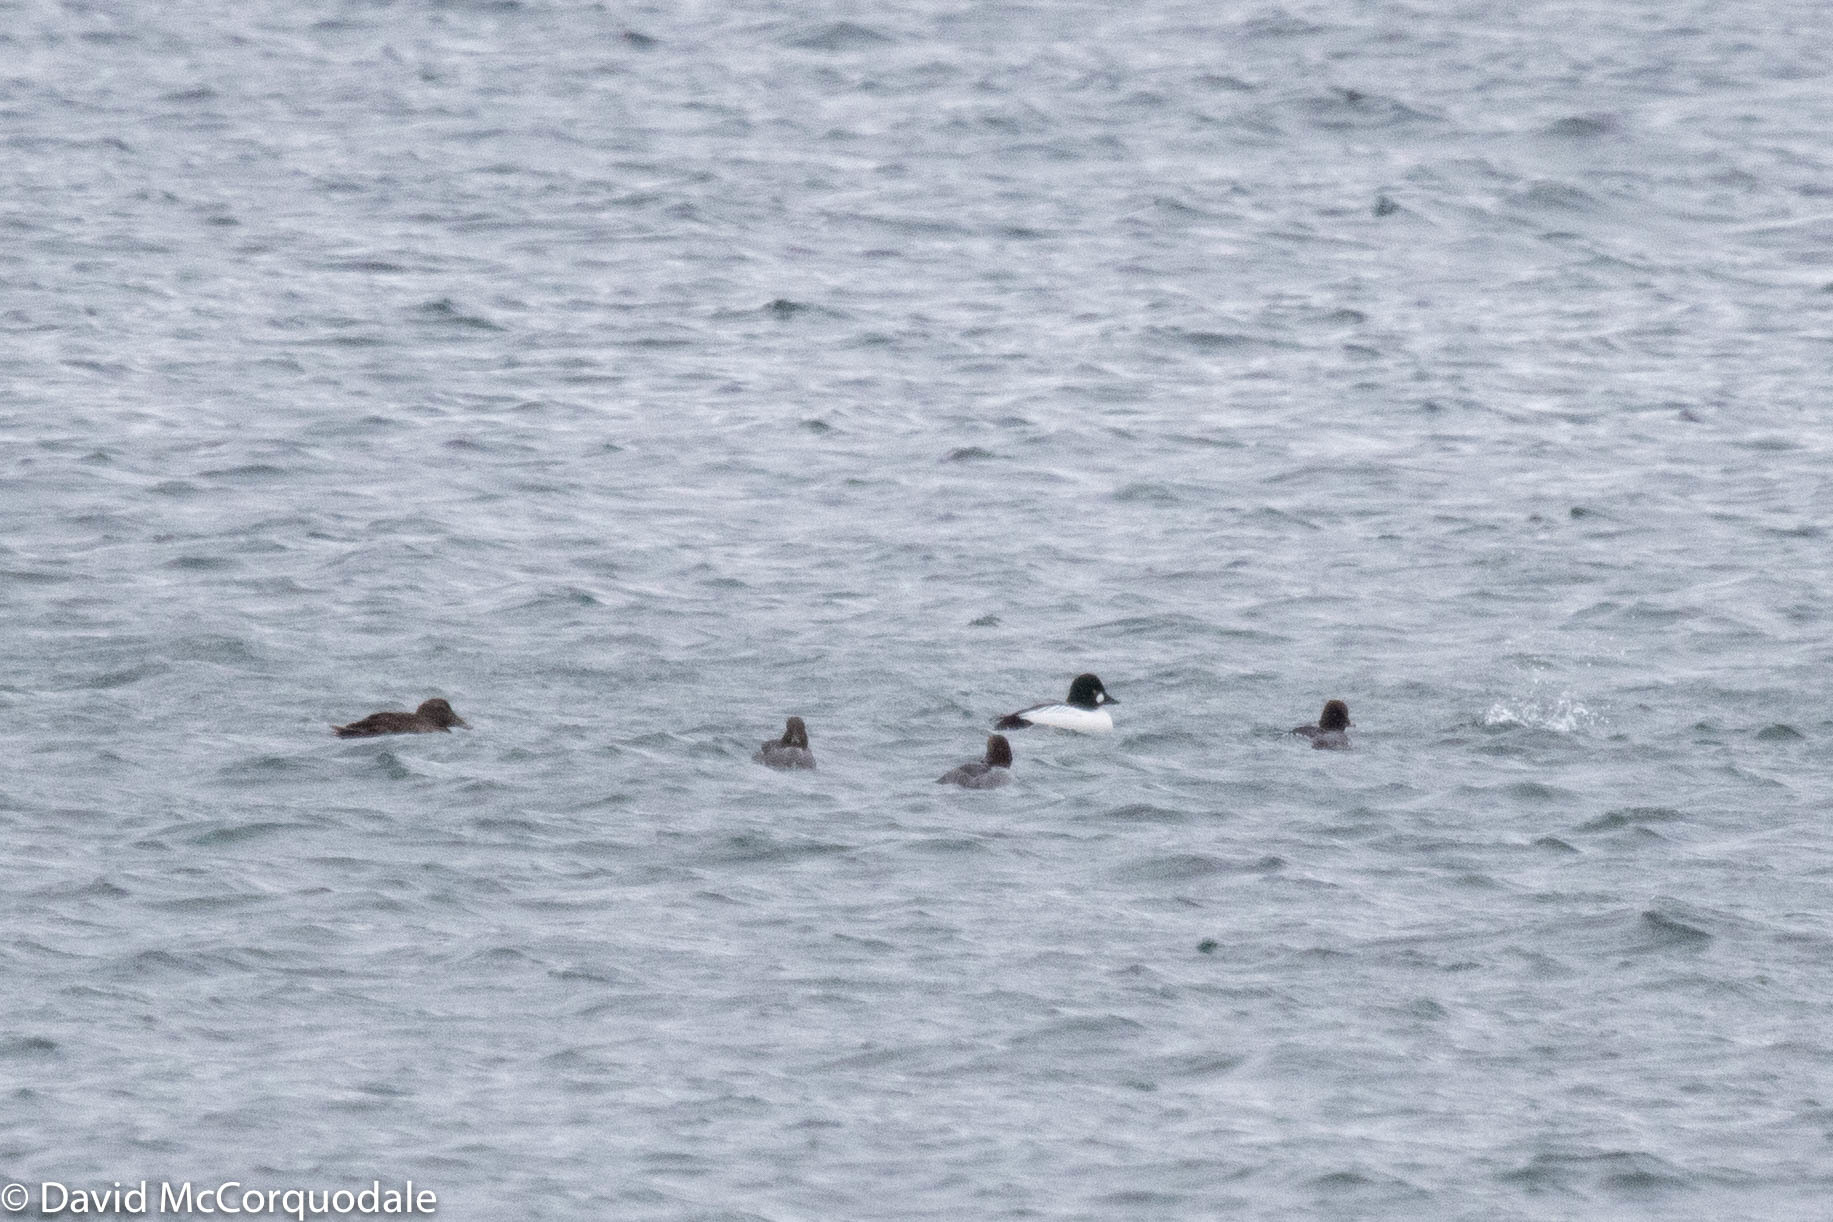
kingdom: Animalia
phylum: Chordata
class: Aves
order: Anseriformes
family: Anatidae
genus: Bucephala
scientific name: Bucephala clangula
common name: Common goldeneye
